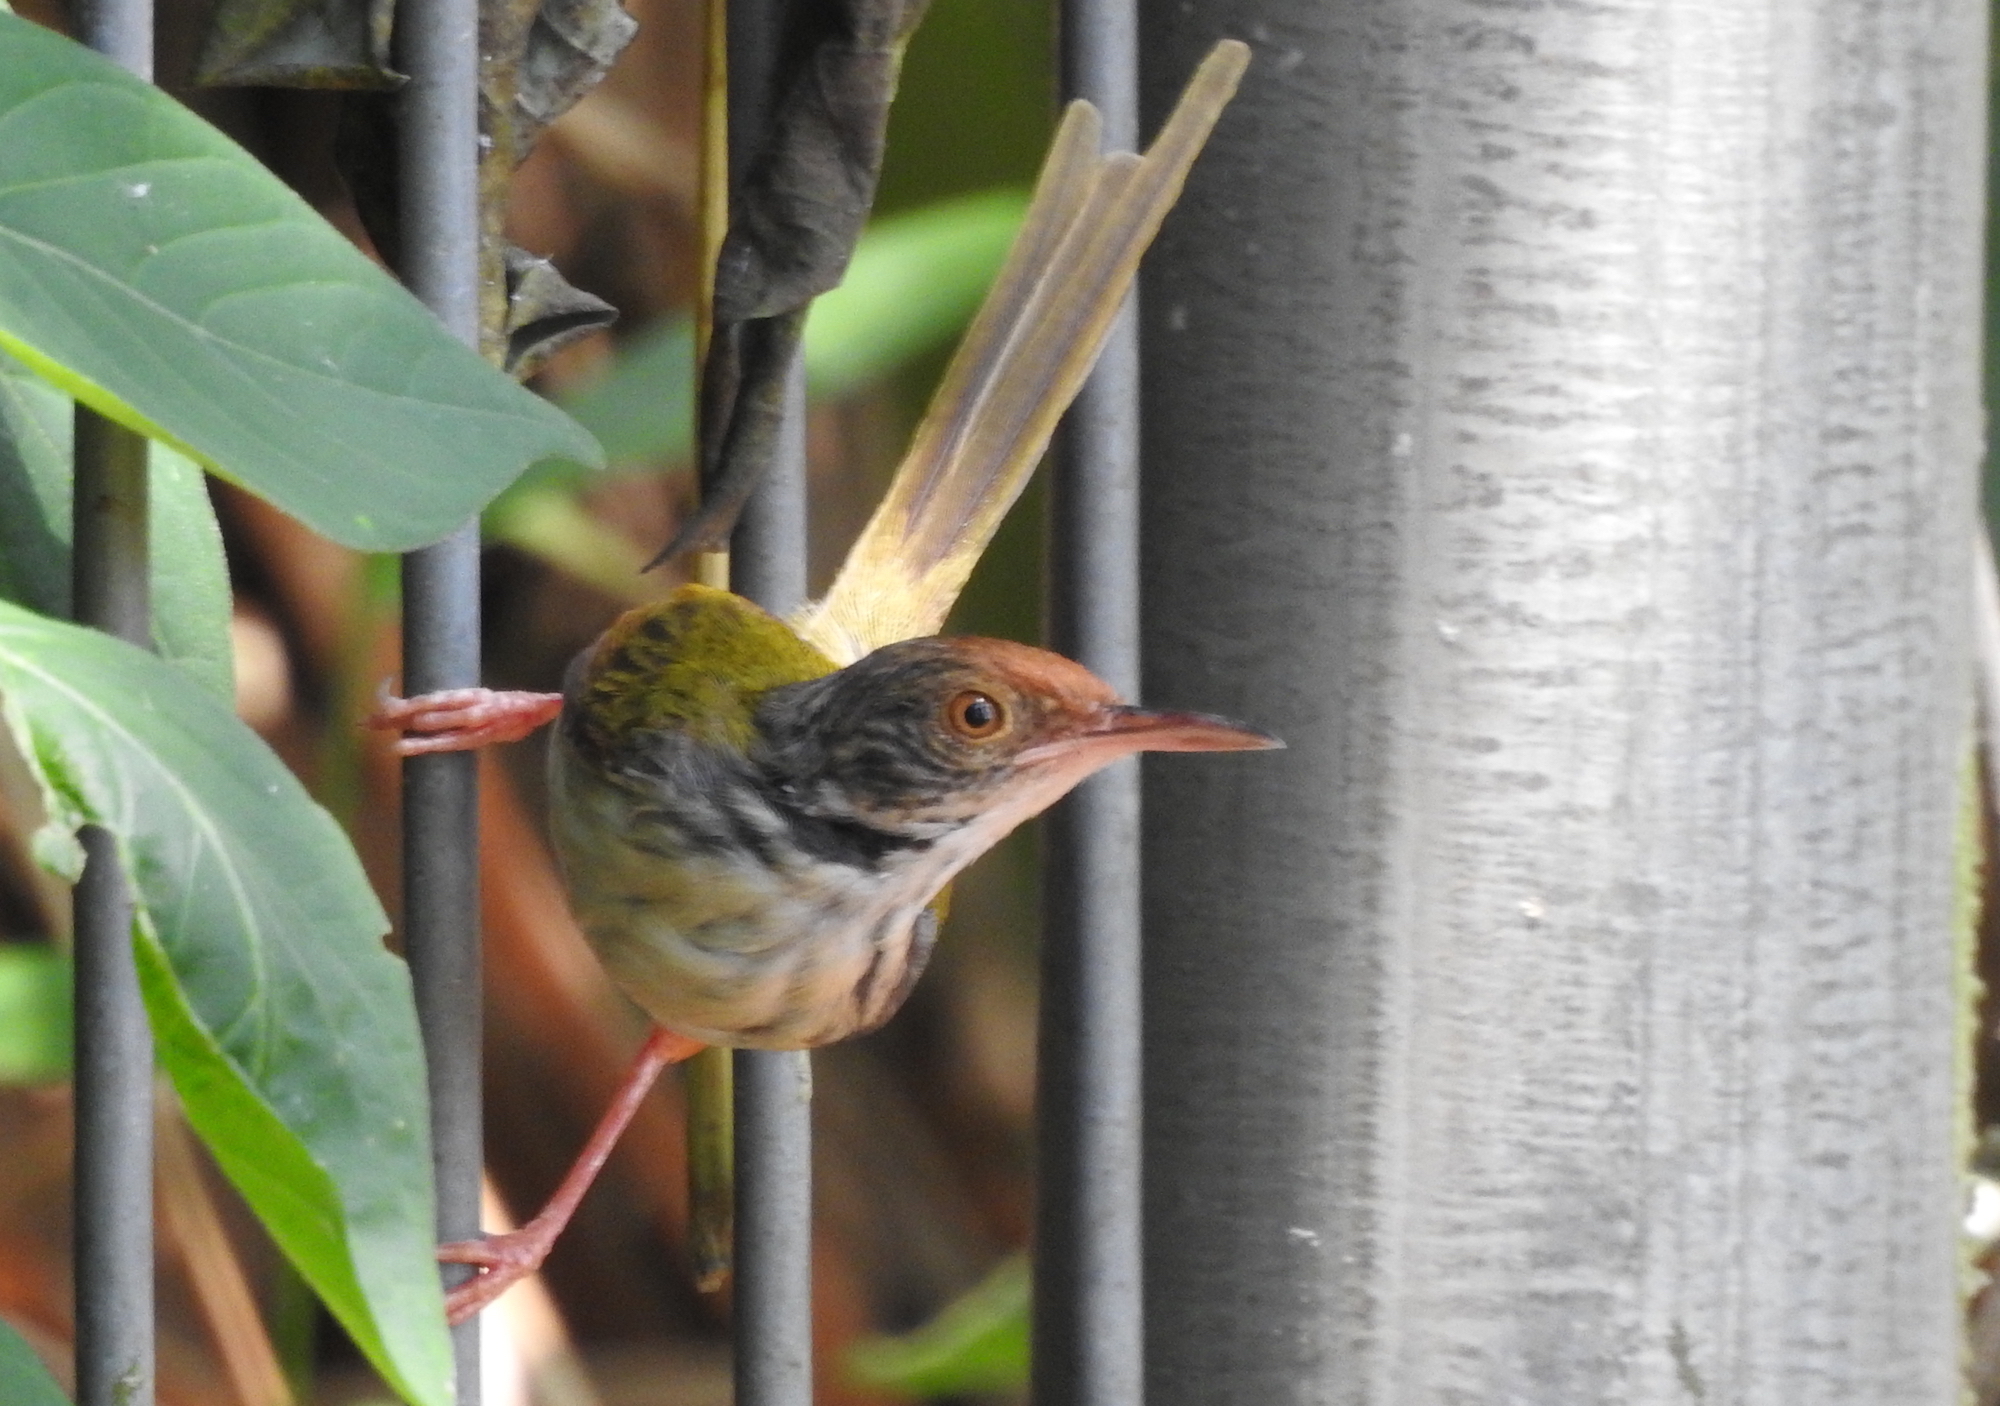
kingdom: Animalia
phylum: Chordata
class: Aves
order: Passeriformes
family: Cisticolidae
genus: Orthotomus
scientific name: Orthotomus sutorius
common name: Common tailorbird
